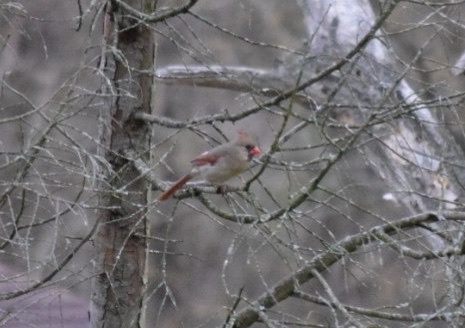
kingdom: Animalia
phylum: Chordata
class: Aves
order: Passeriformes
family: Cardinalidae
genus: Cardinalis
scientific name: Cardinalis cardinalis
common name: Northern cardinal
